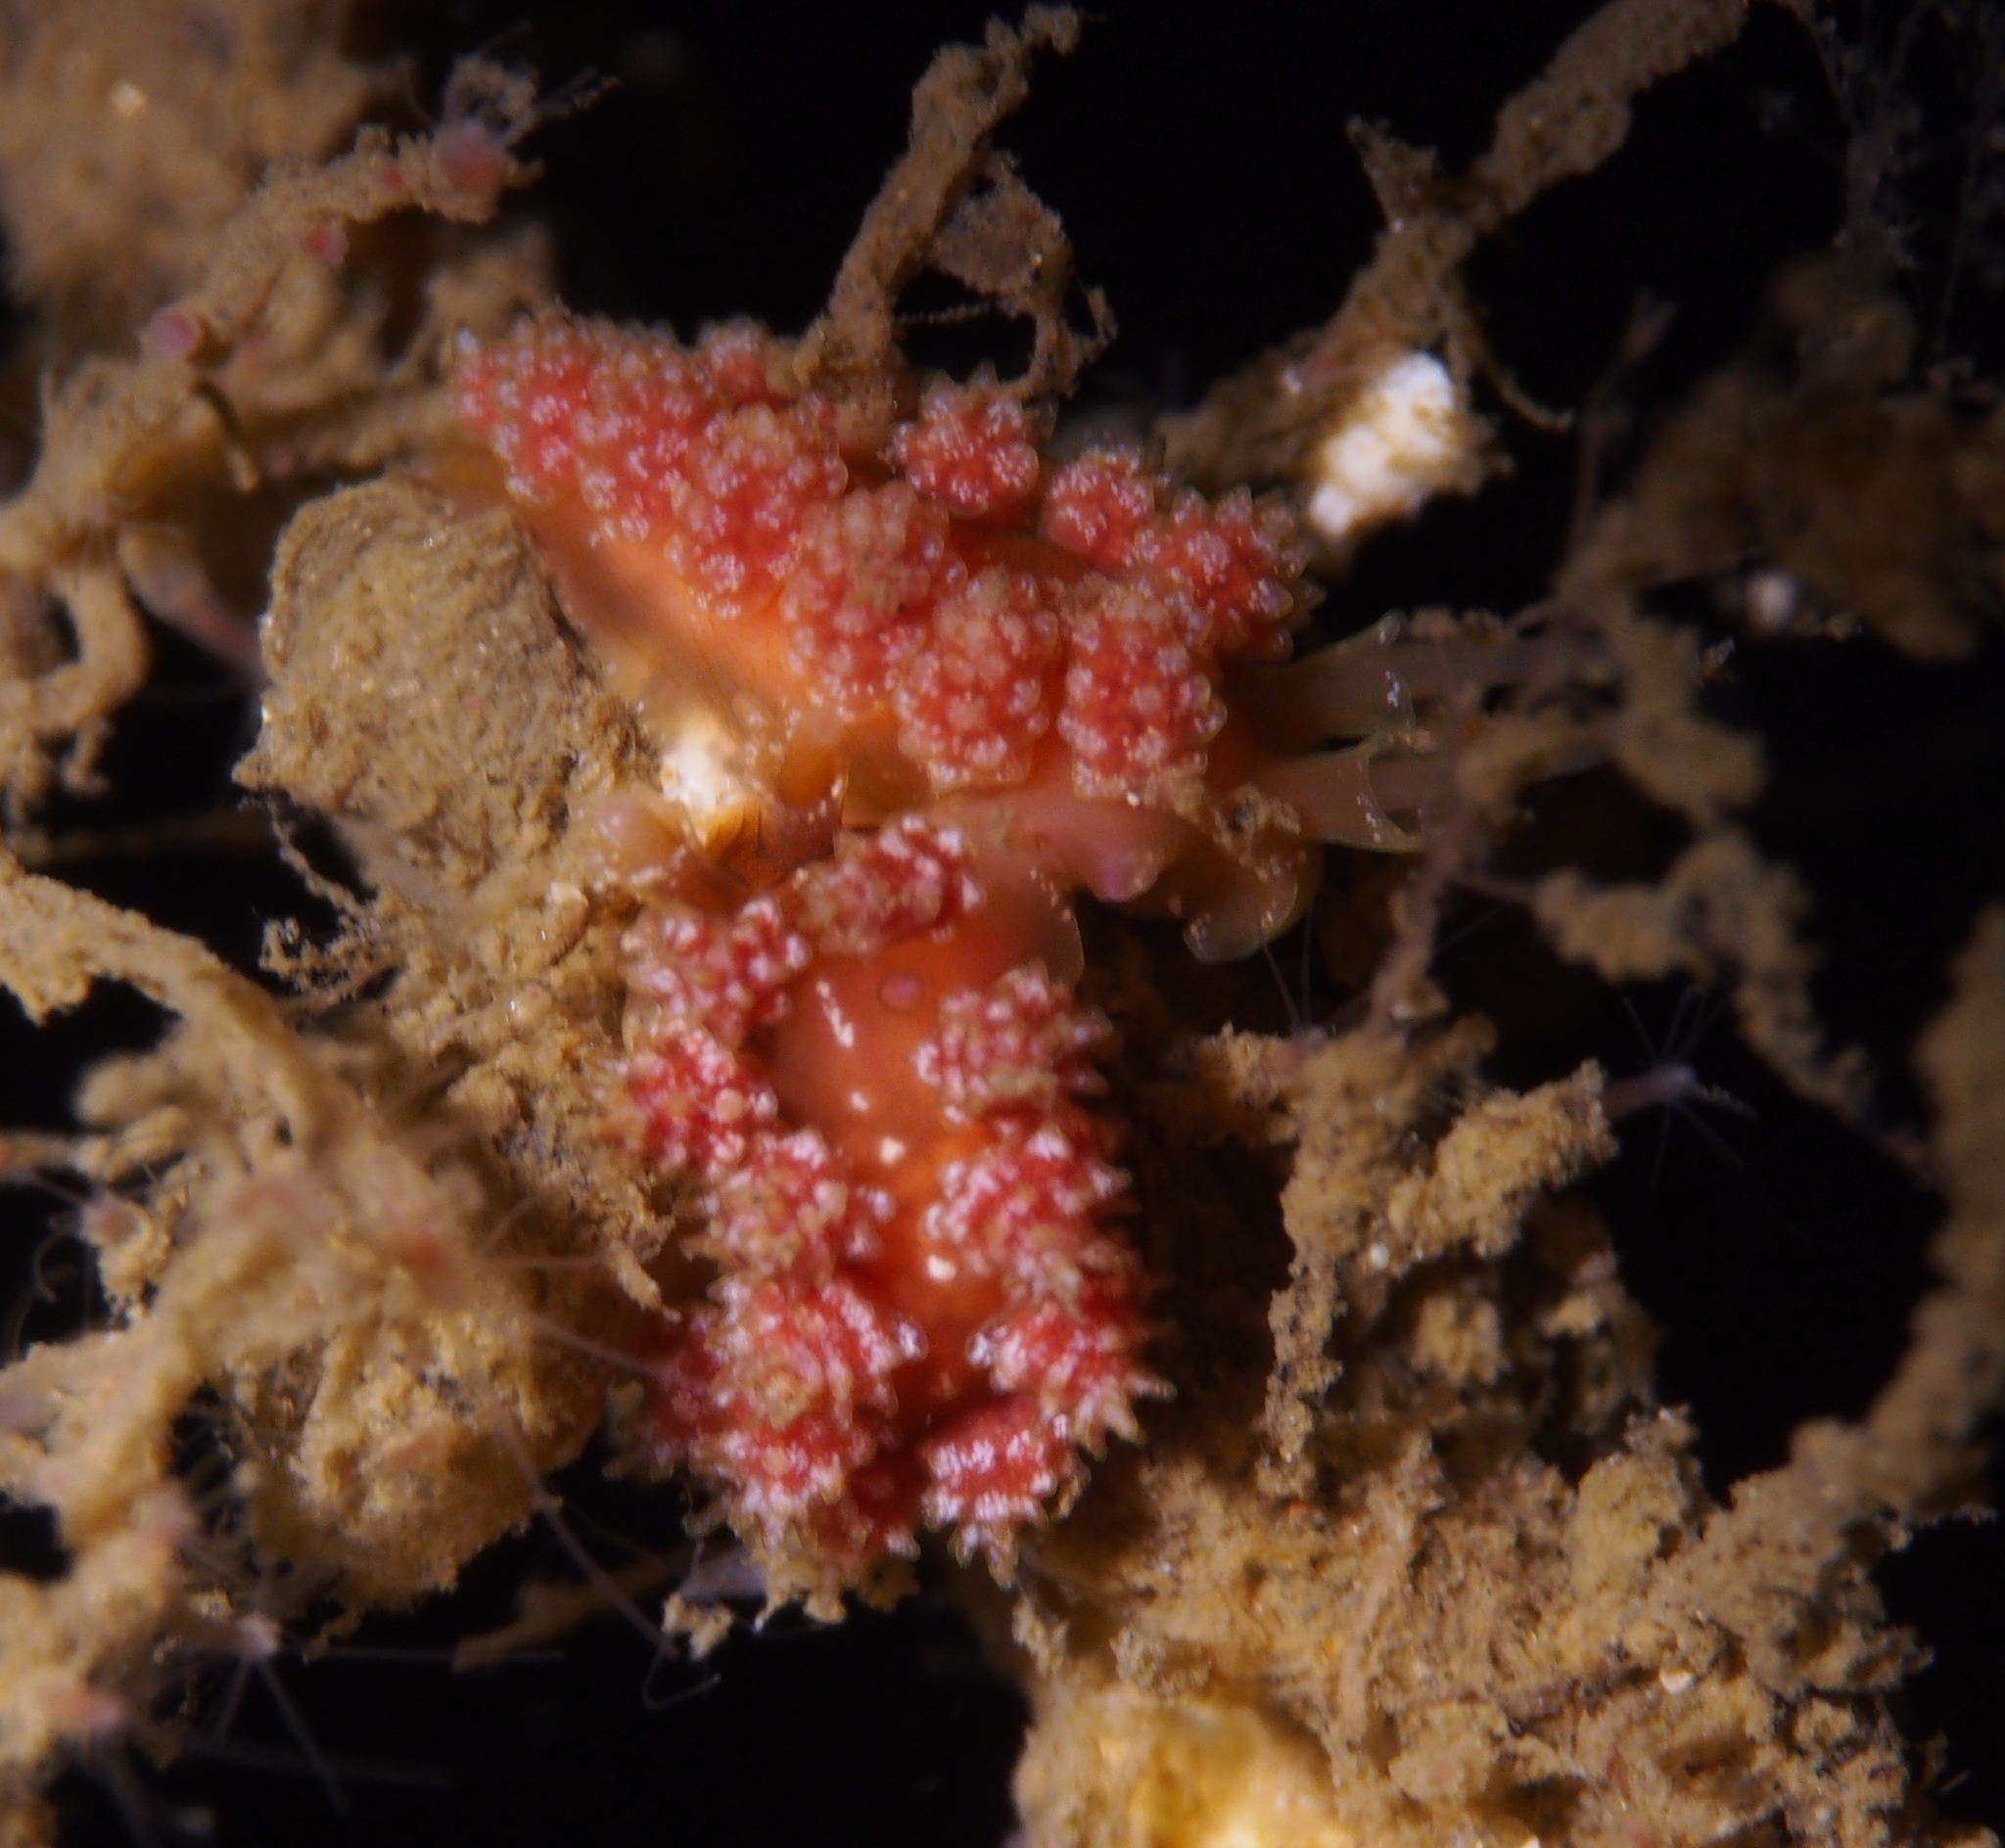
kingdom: Animalia
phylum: Mollusca
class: Gastropoda
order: Nudibranchia
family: Dotidae
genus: Doto
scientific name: Doto fragilis
